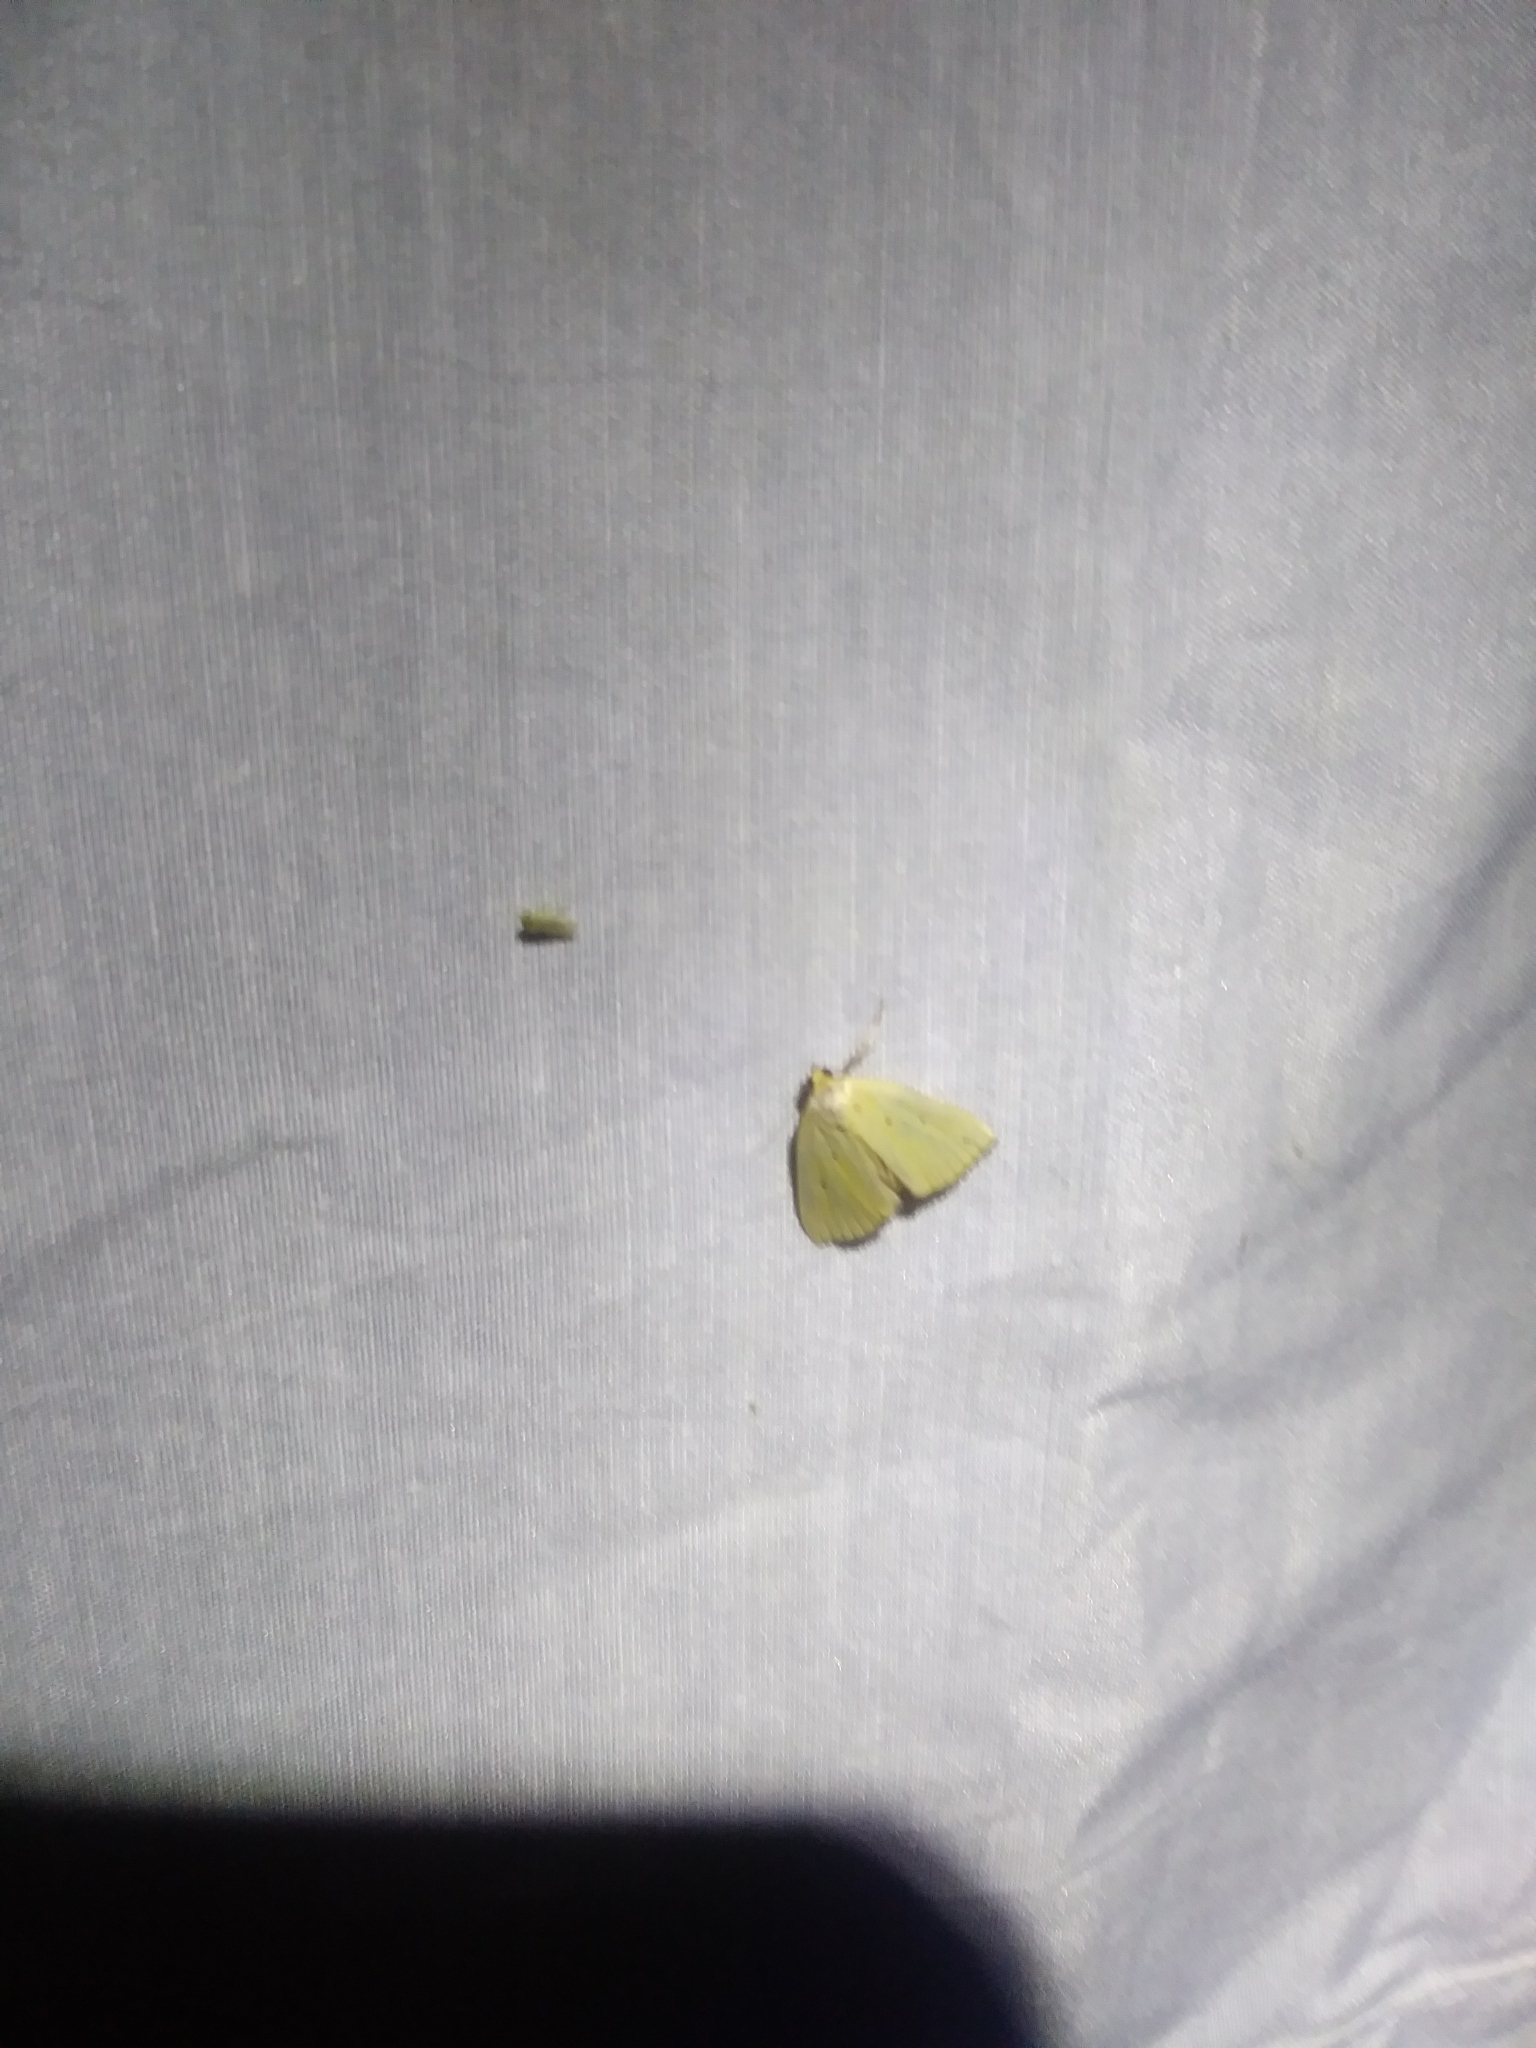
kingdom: Animalia
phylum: Arthropoda
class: Insecta
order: Lepidoptera
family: Noctuidae
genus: Marimatha
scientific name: Marimatha nigrofimbria
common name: Black-bordered lemon moth
